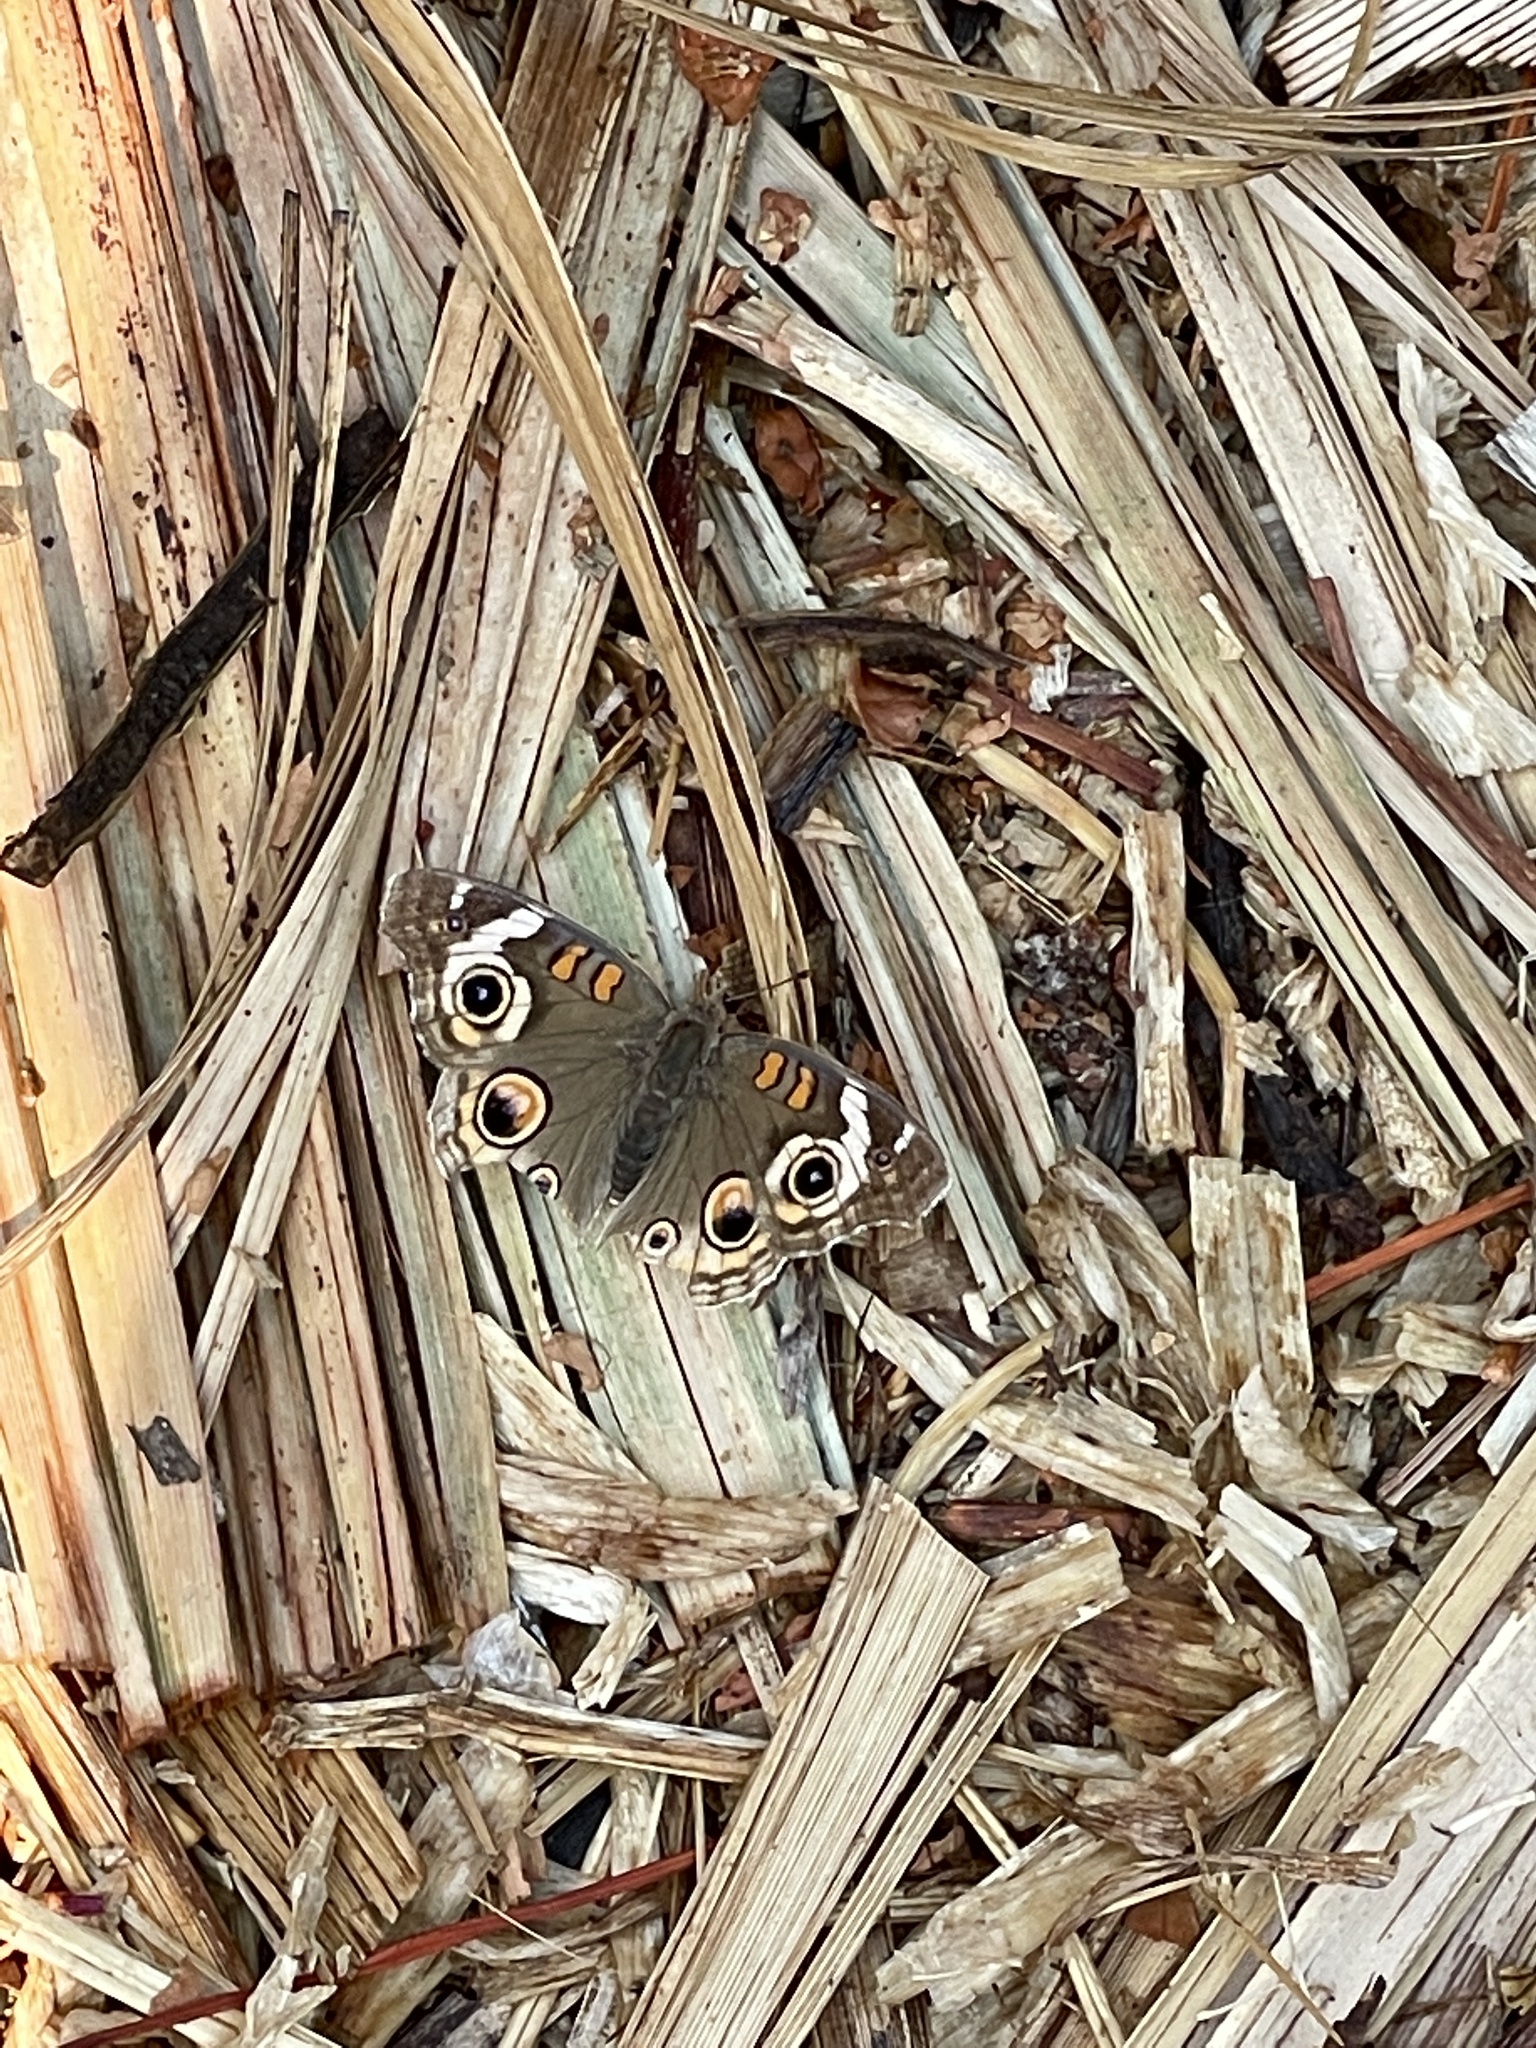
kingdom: Animalia
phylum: Arthropoda
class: Insecta
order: Lepidoptera
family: Nymphalidae
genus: Junonia
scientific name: Junonia grisea
